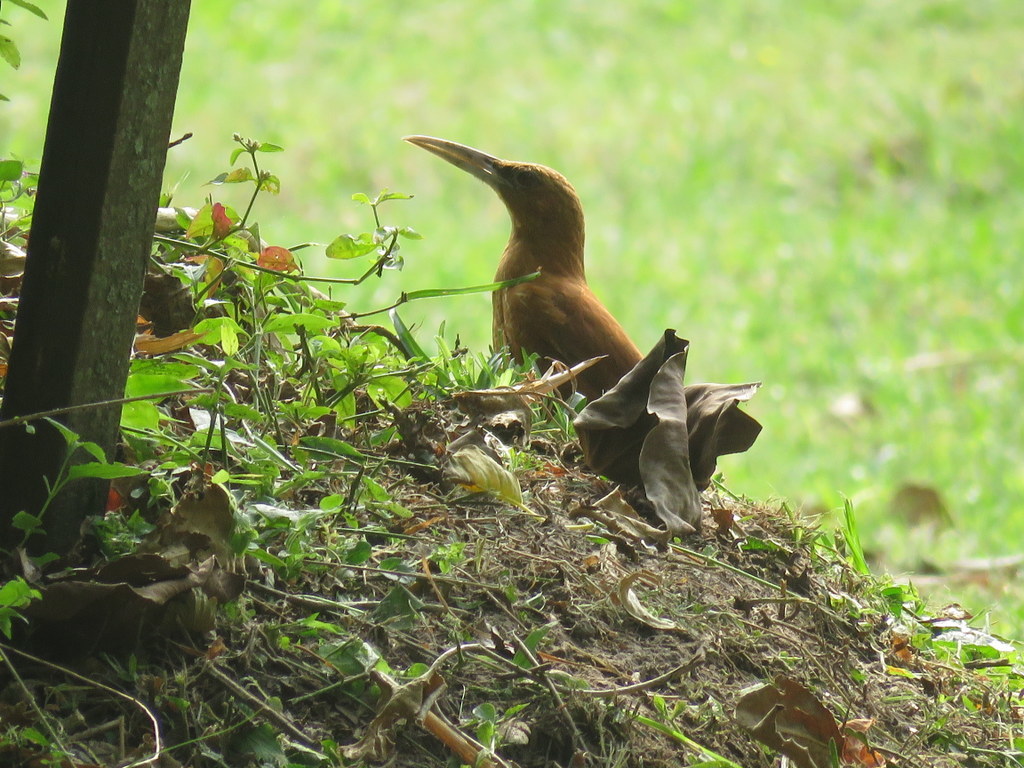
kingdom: Animalia
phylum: Chordata
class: Aves
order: Passeriformes
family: Furnariidae
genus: Xiphocolaptes
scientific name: Xiphocolaptes major
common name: Great rufous woodcreeper
